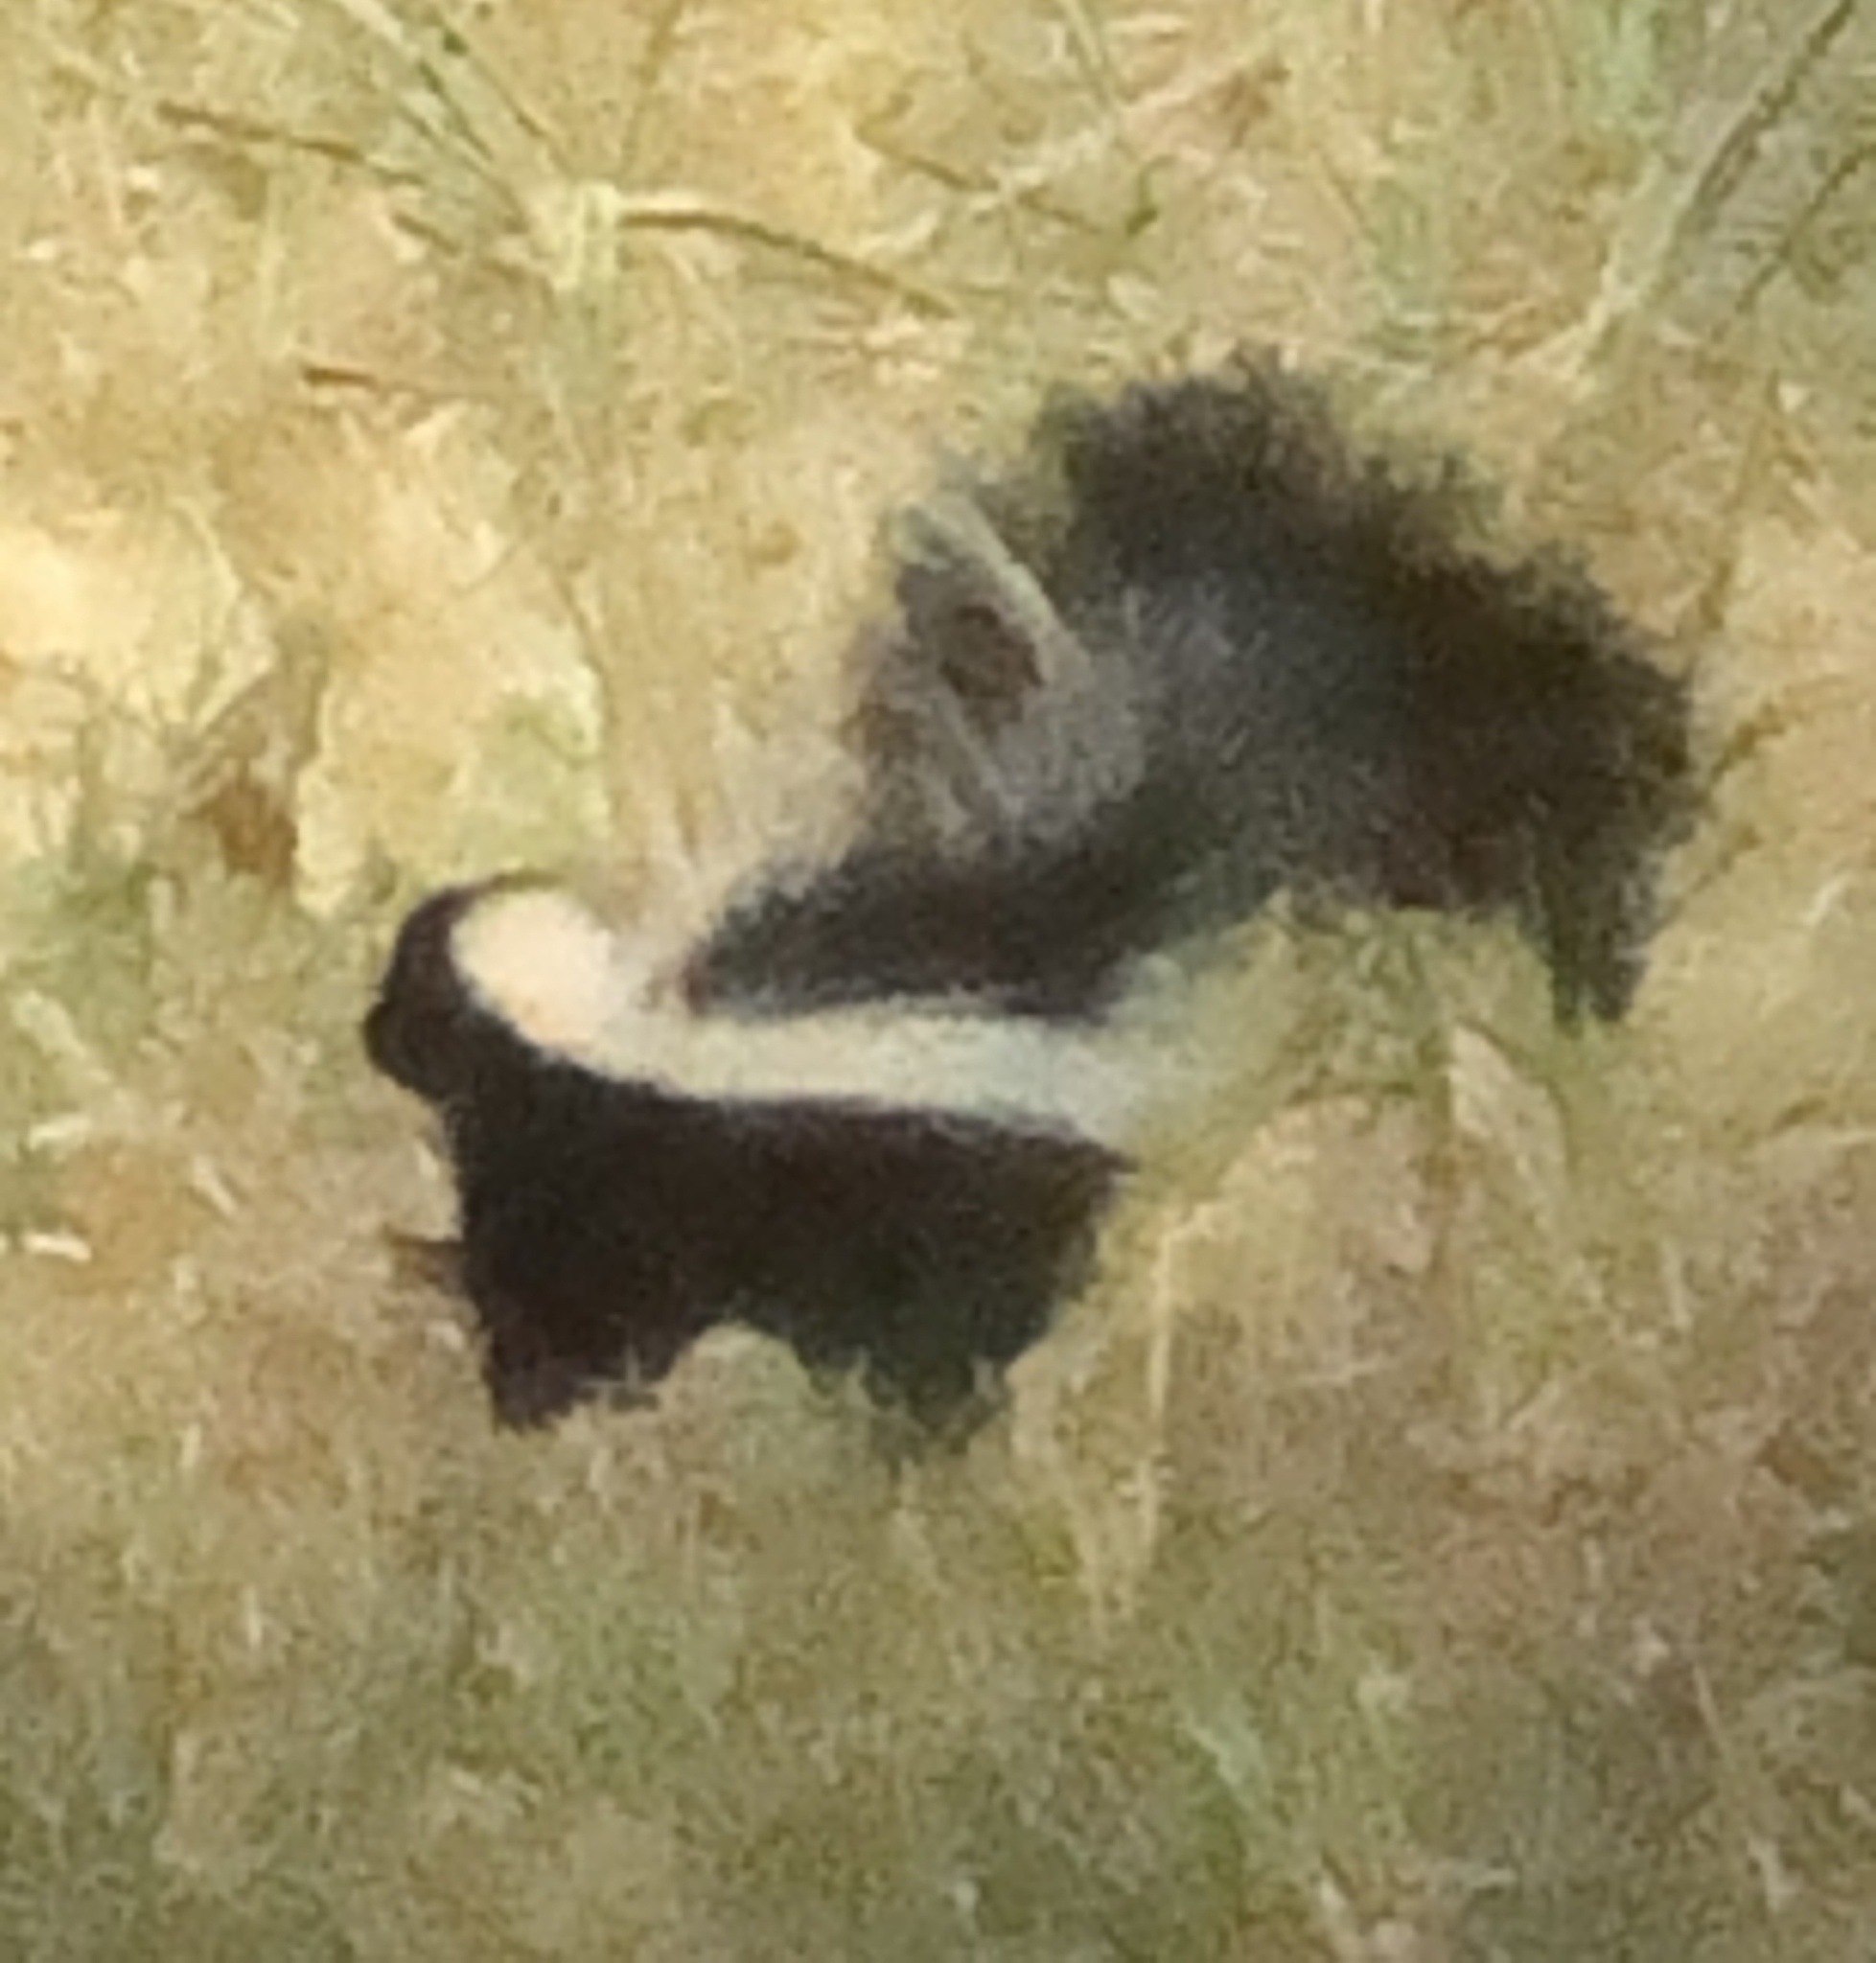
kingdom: Animalia
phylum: Chordata
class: Mammalia
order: Carnivora
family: Mephitidae
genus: Mephitis
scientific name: Mephitis mephitis
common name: Striped skunk
